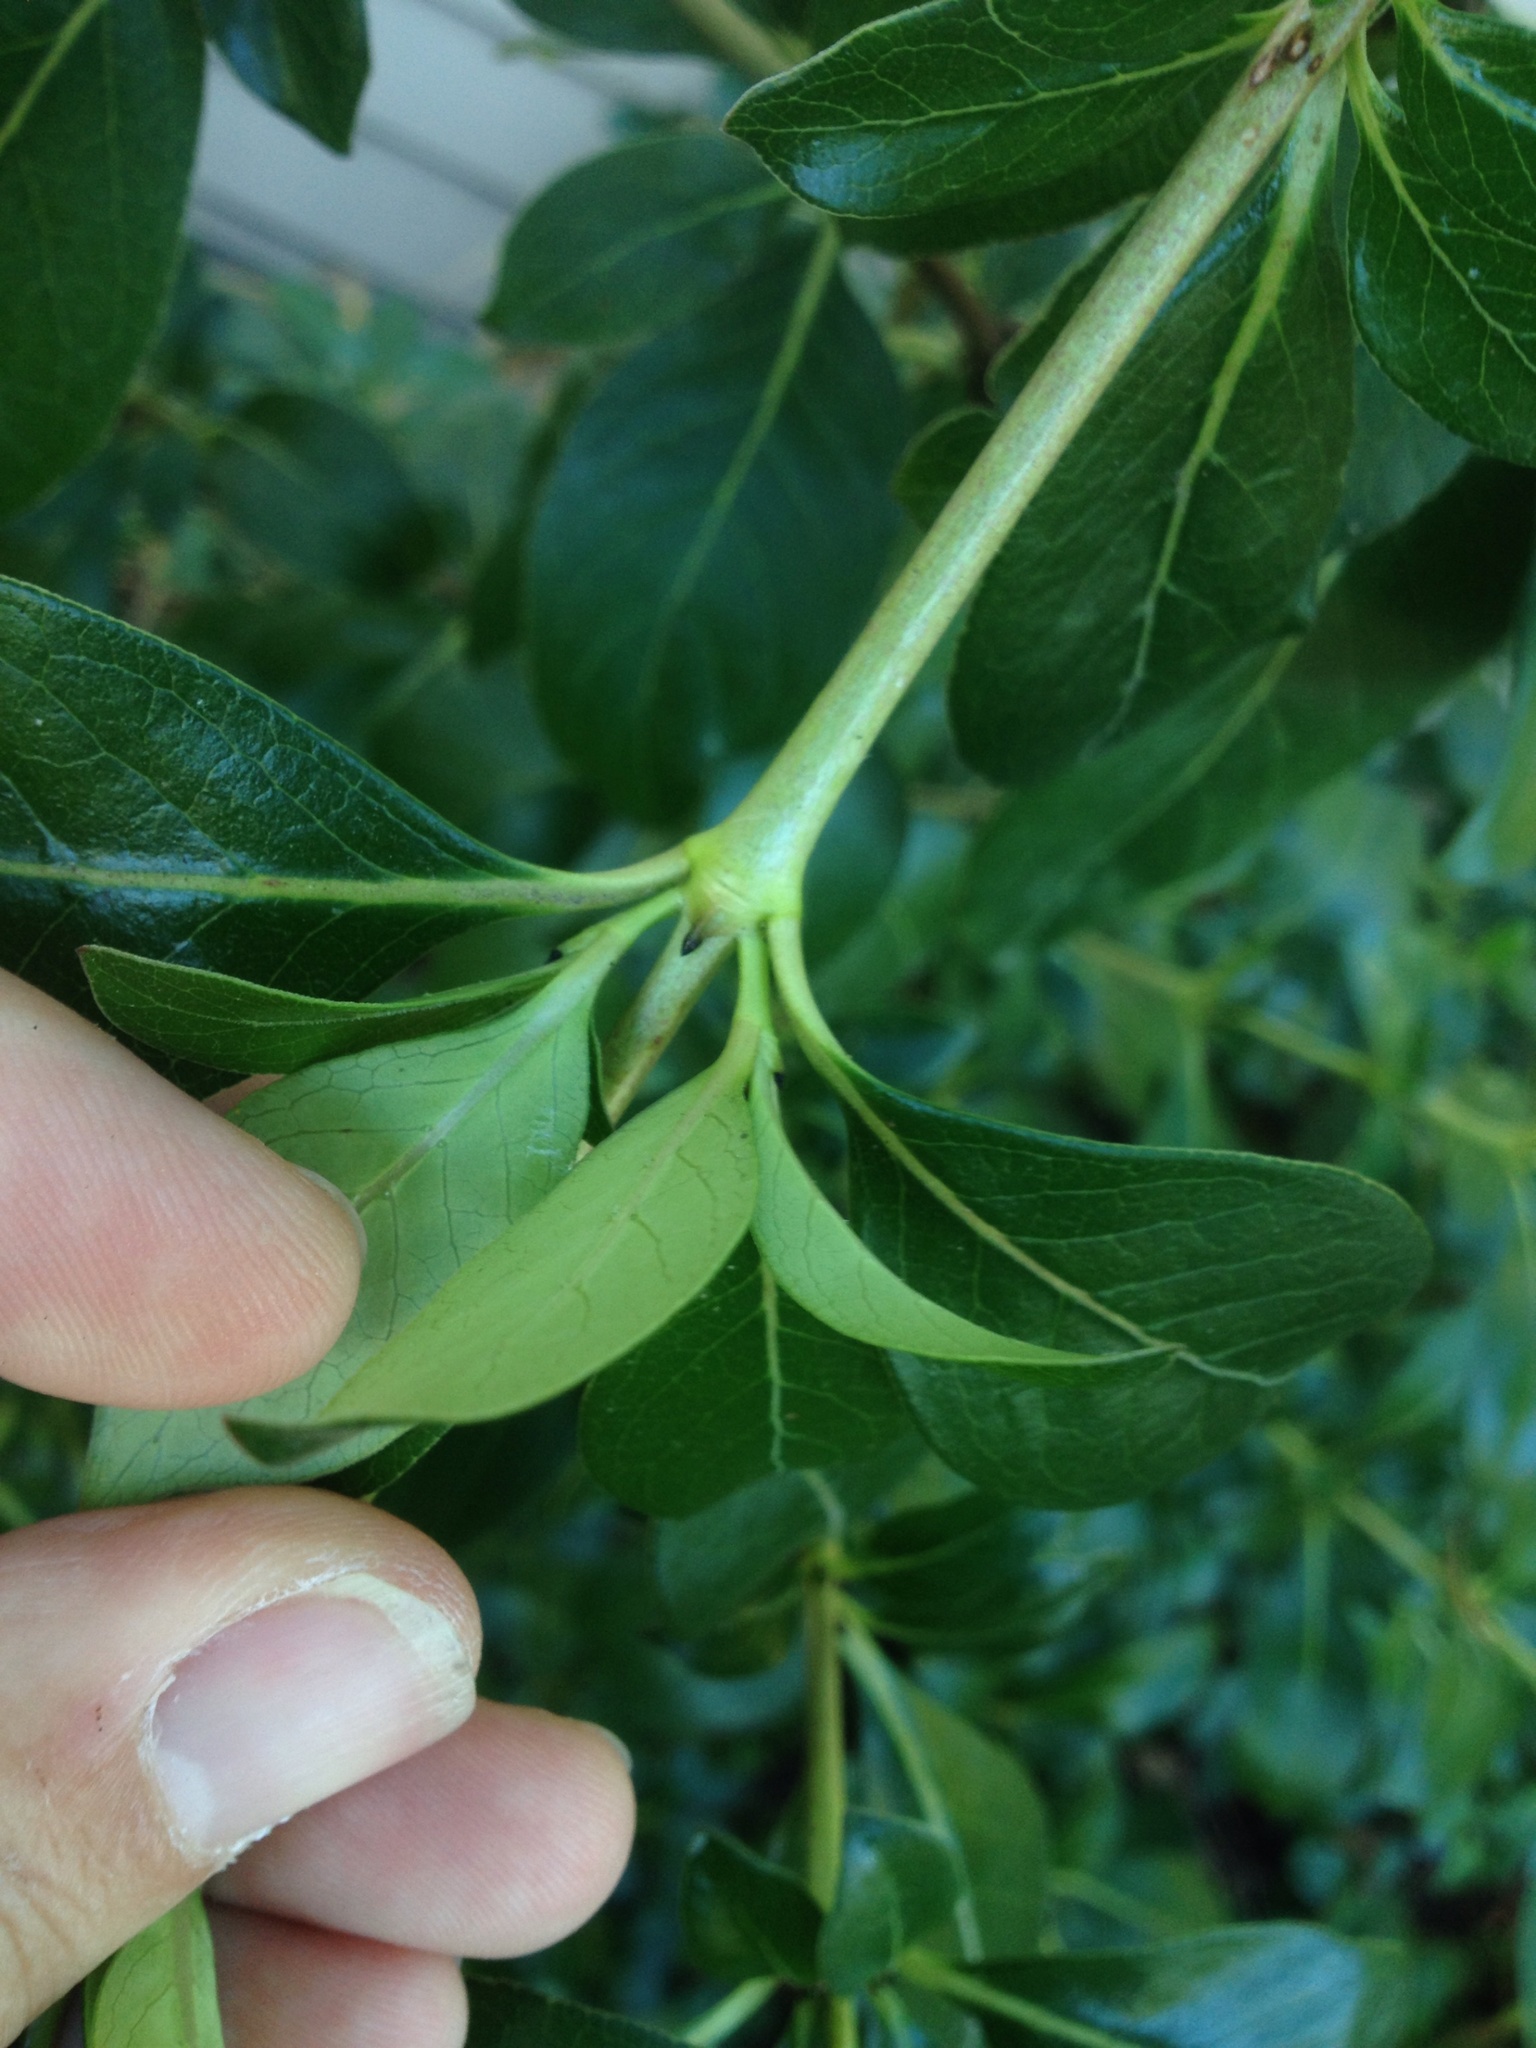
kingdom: Plantae
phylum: Tracheophyta
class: Magnoliopsida
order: Gentianales
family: Rubiaceae
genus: Coprosma
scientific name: Coprosma robusta
